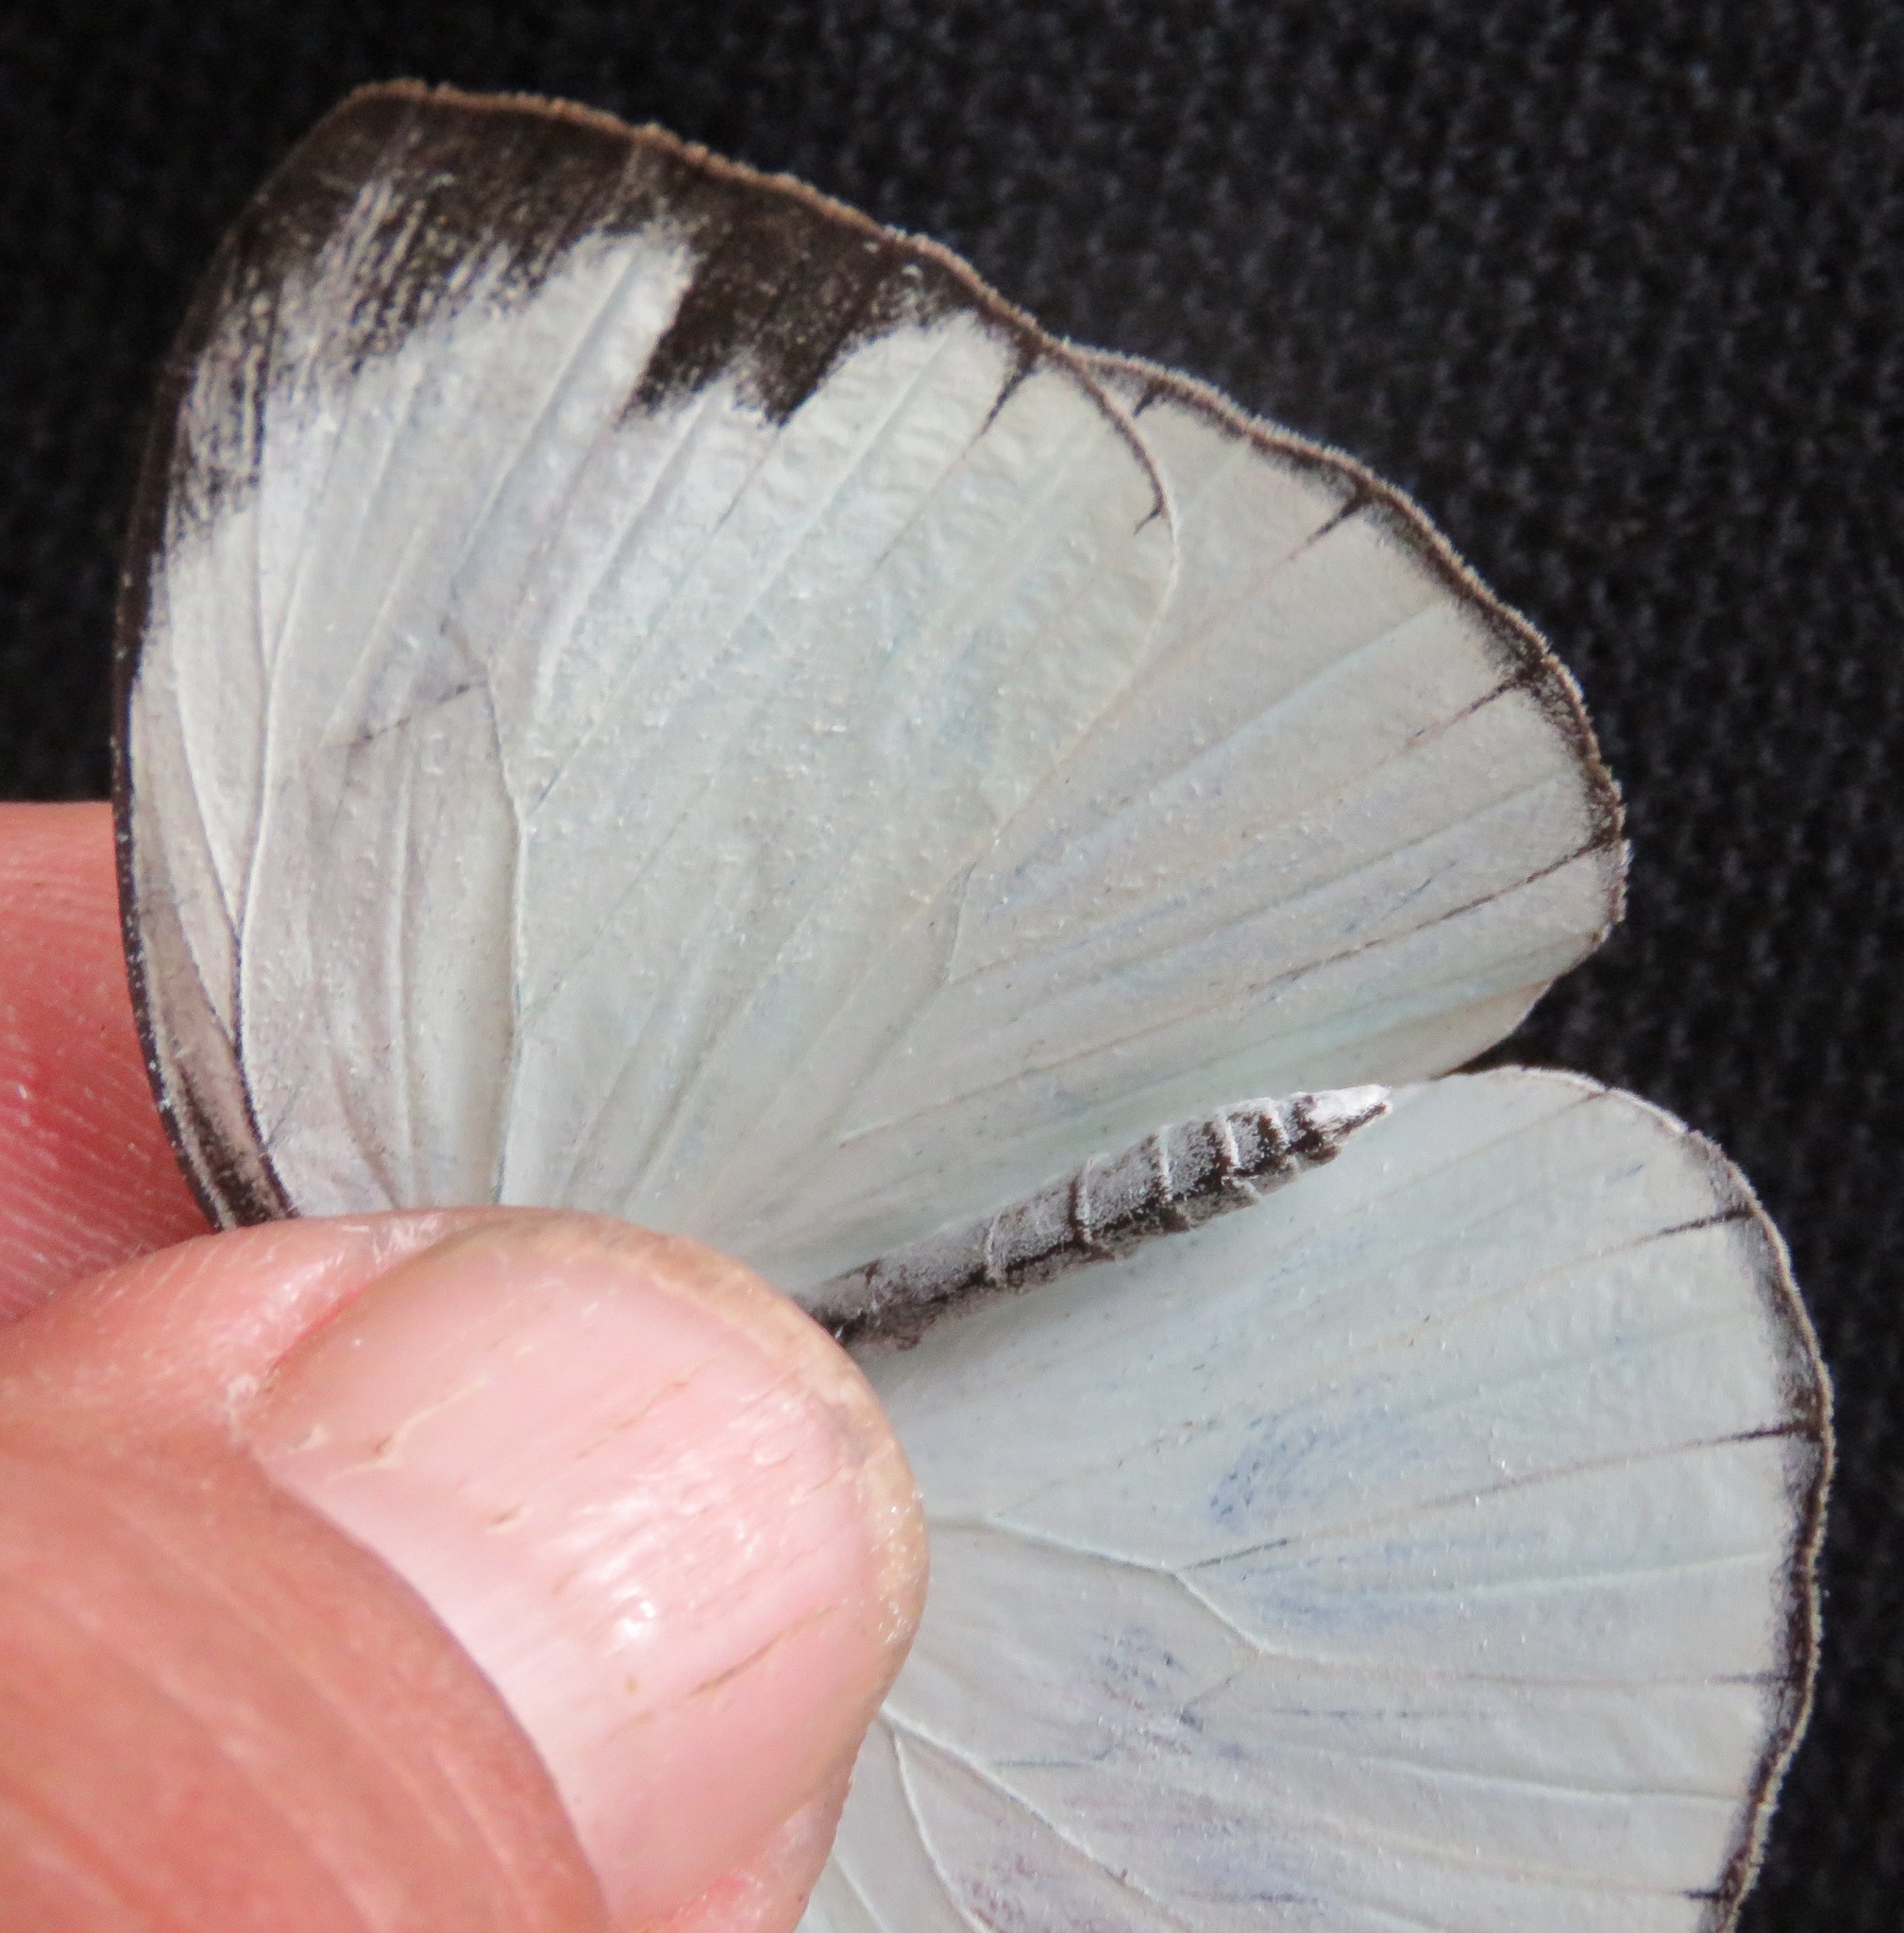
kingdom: Animalia
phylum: Arthropoda
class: Insecta
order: Lepidoptera
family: Pieridae
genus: Itaballia
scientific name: Itaballia demophile
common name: Cross-barred white
